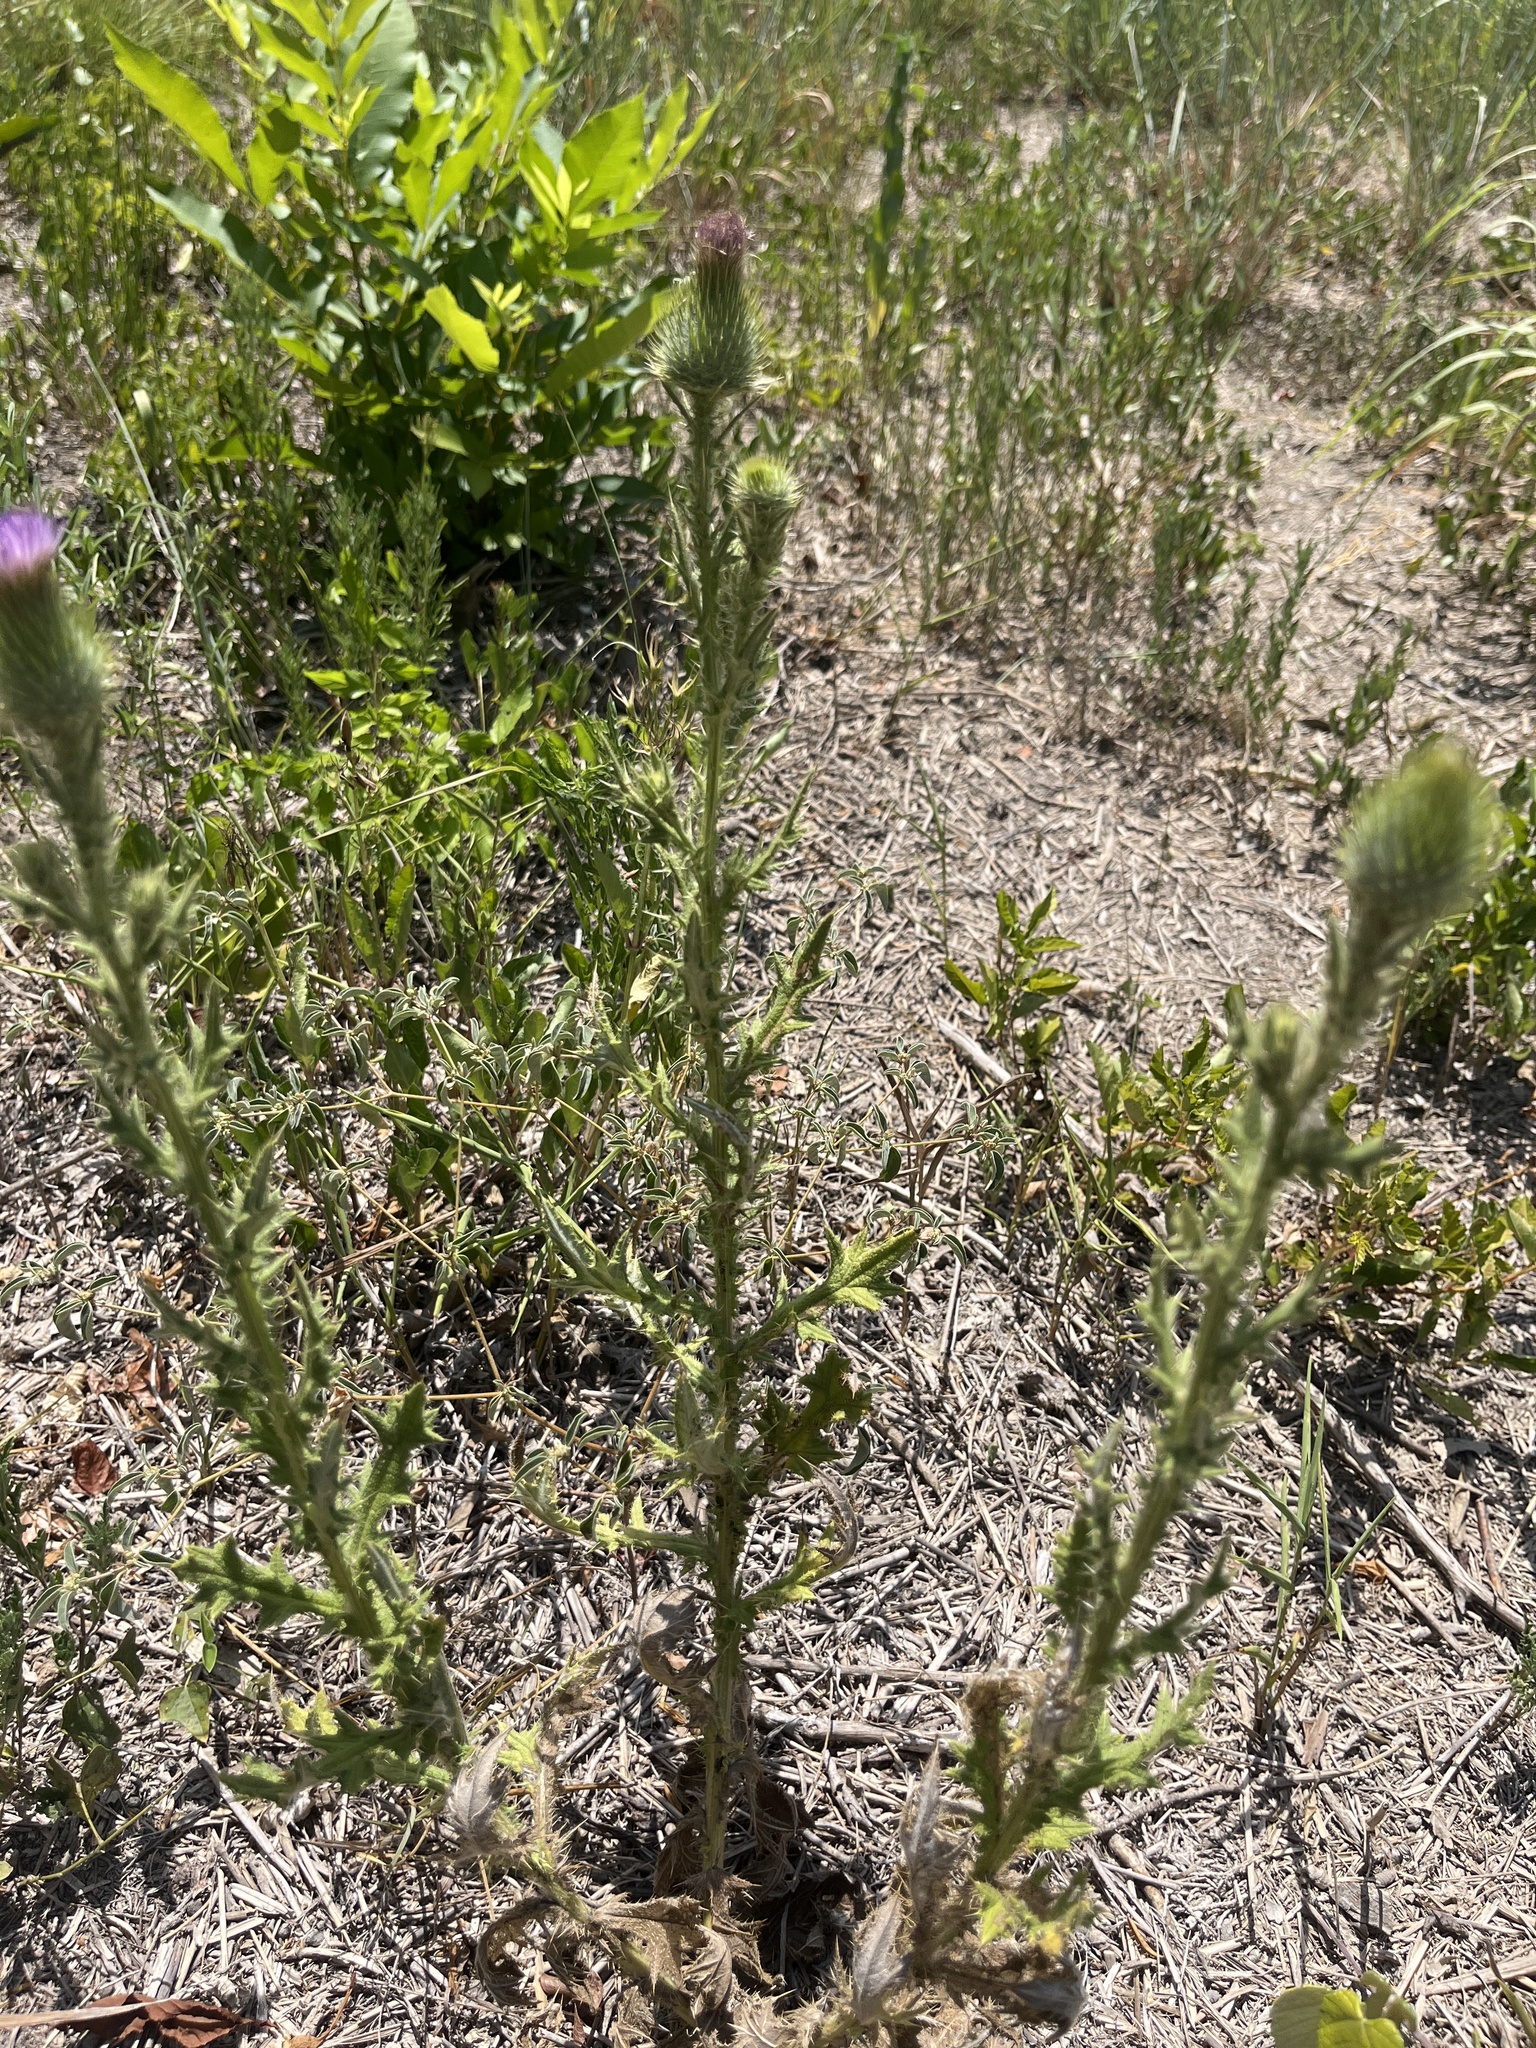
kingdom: Plantae
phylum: Tracheophyta
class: Magnoliopsida
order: Asterales
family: Asteraceae
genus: Cirsium
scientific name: Cirsium vulgare
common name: Bull thistle
